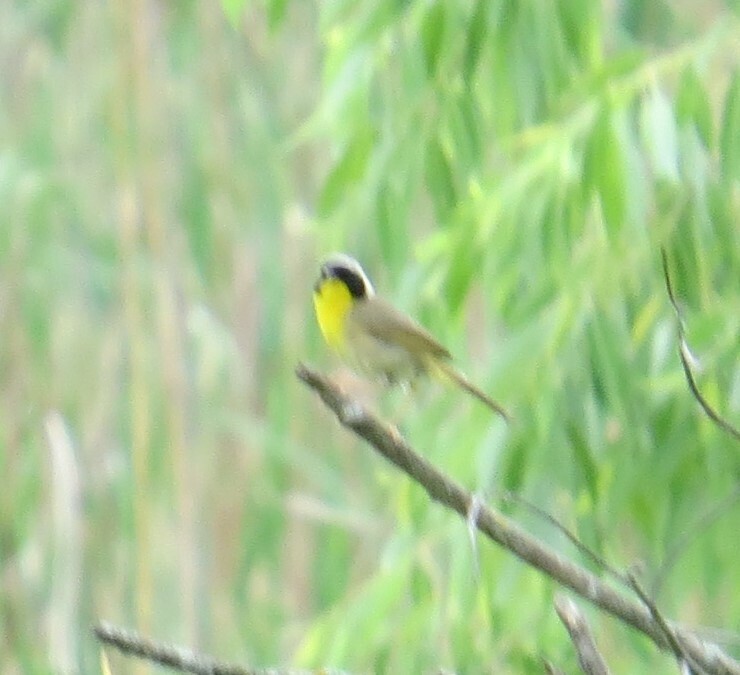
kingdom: Animalia
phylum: Chordata
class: Aves
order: Passeriformes
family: Parulidae
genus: Geothlypis
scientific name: Geothlypis trichas
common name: Common yellowthroat
